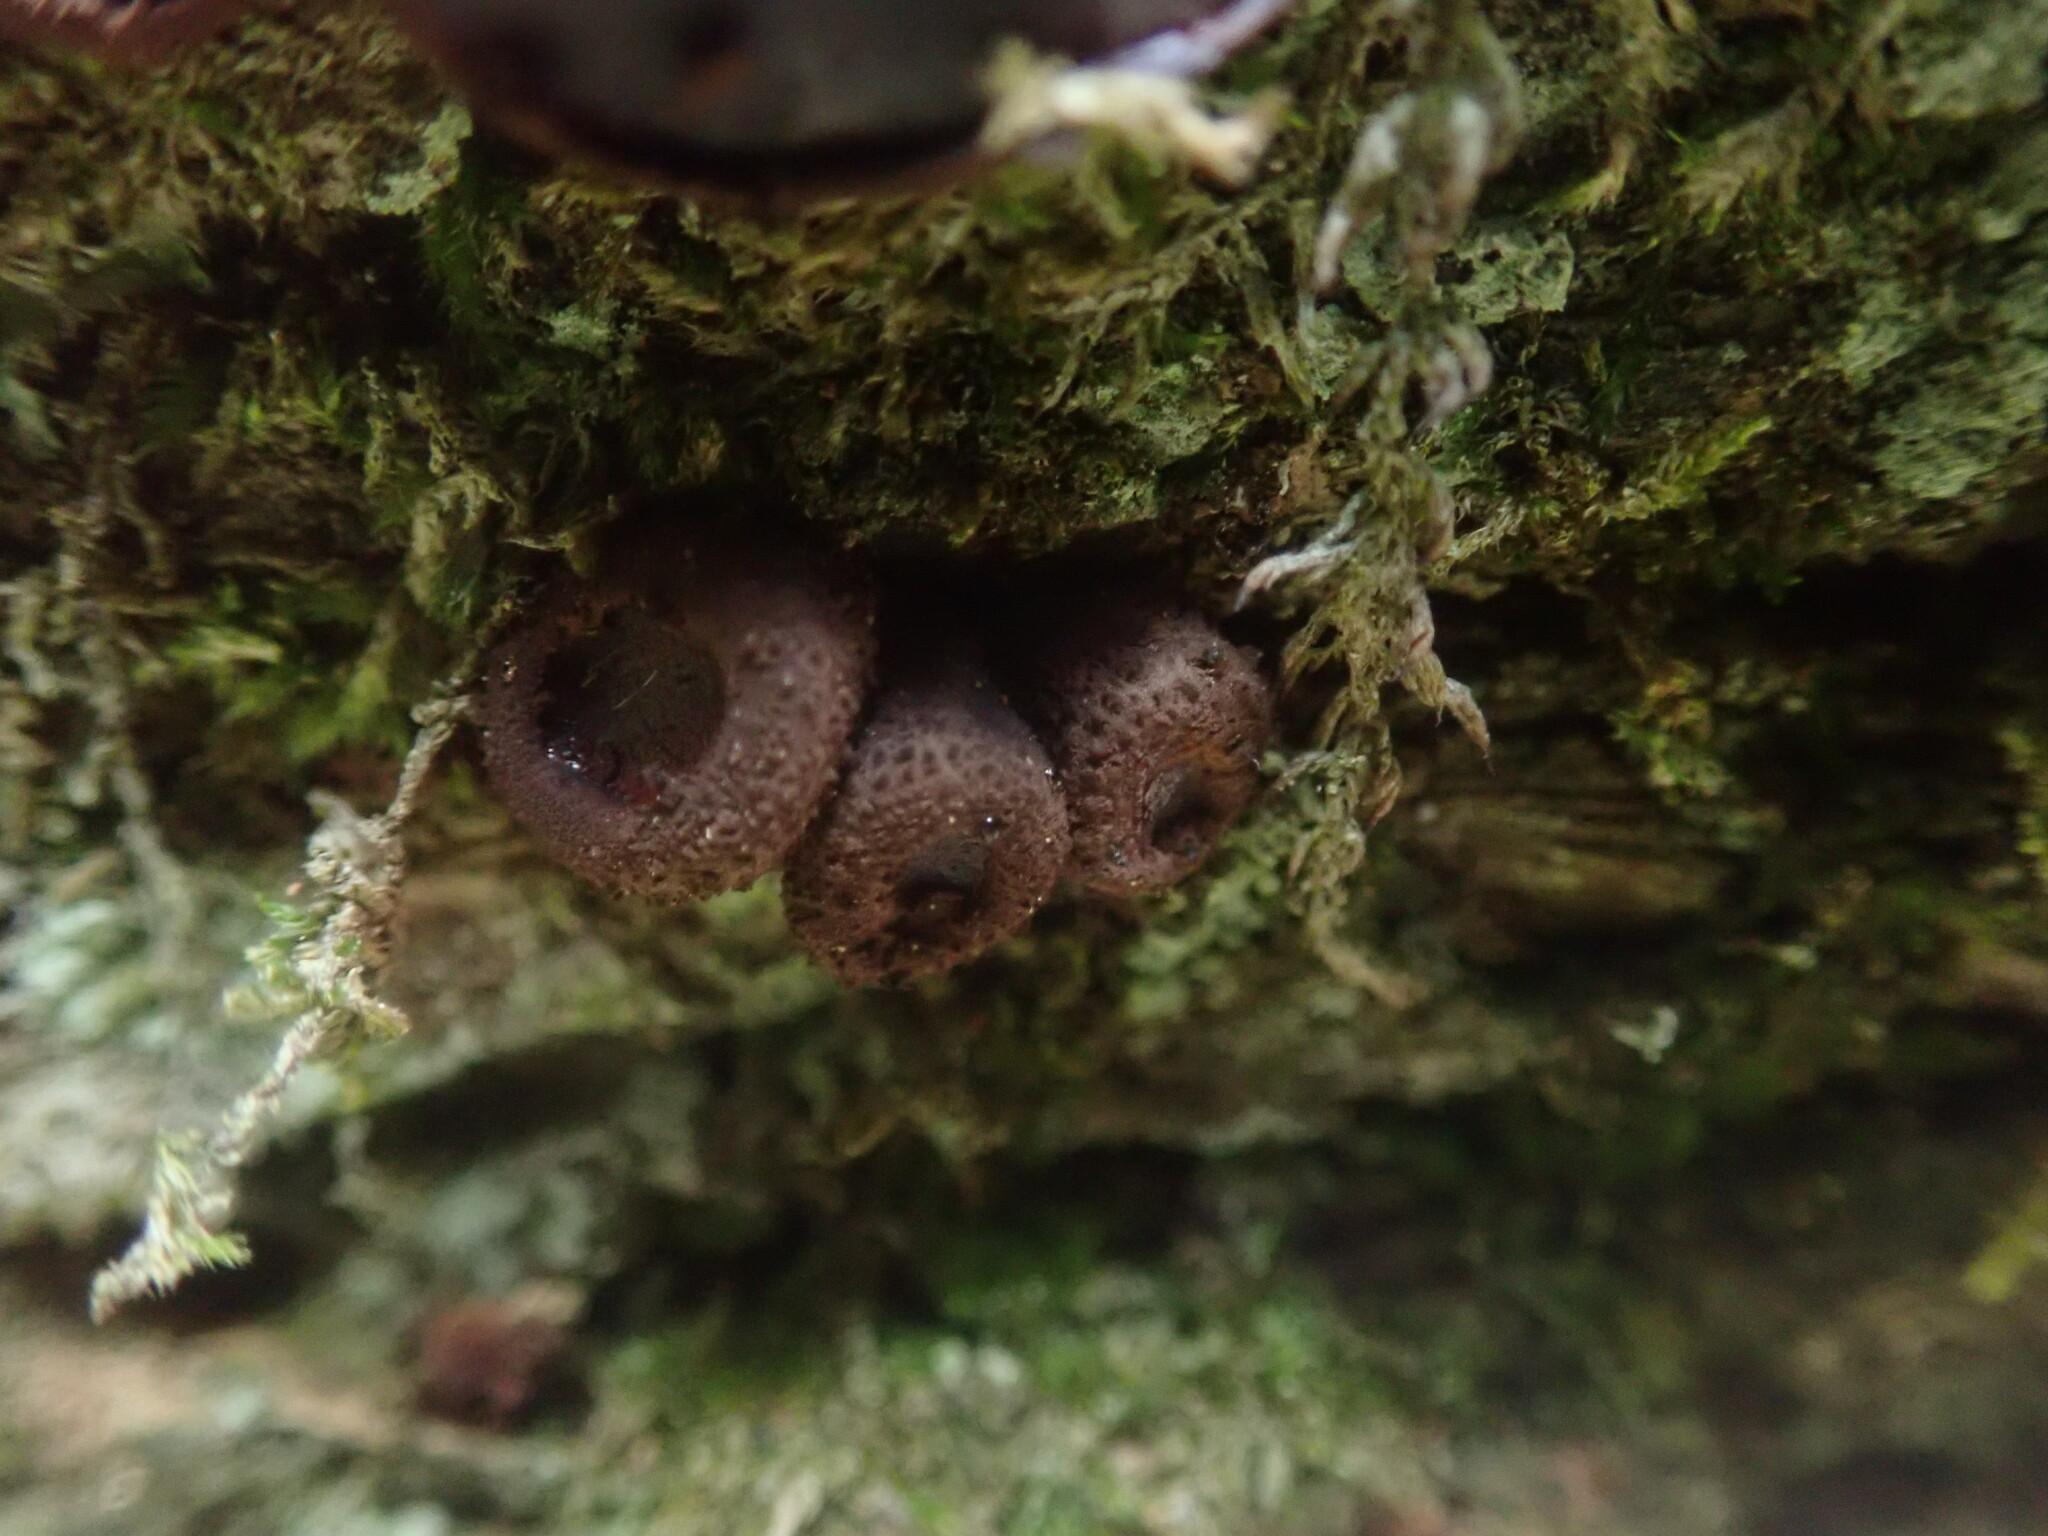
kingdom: Fungi
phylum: Ascomycota
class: Leotiomycetes
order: Phacidiales
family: Phacidiaceae
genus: Bulgaria
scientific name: Bulgaria inquinans
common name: Black bulgar
